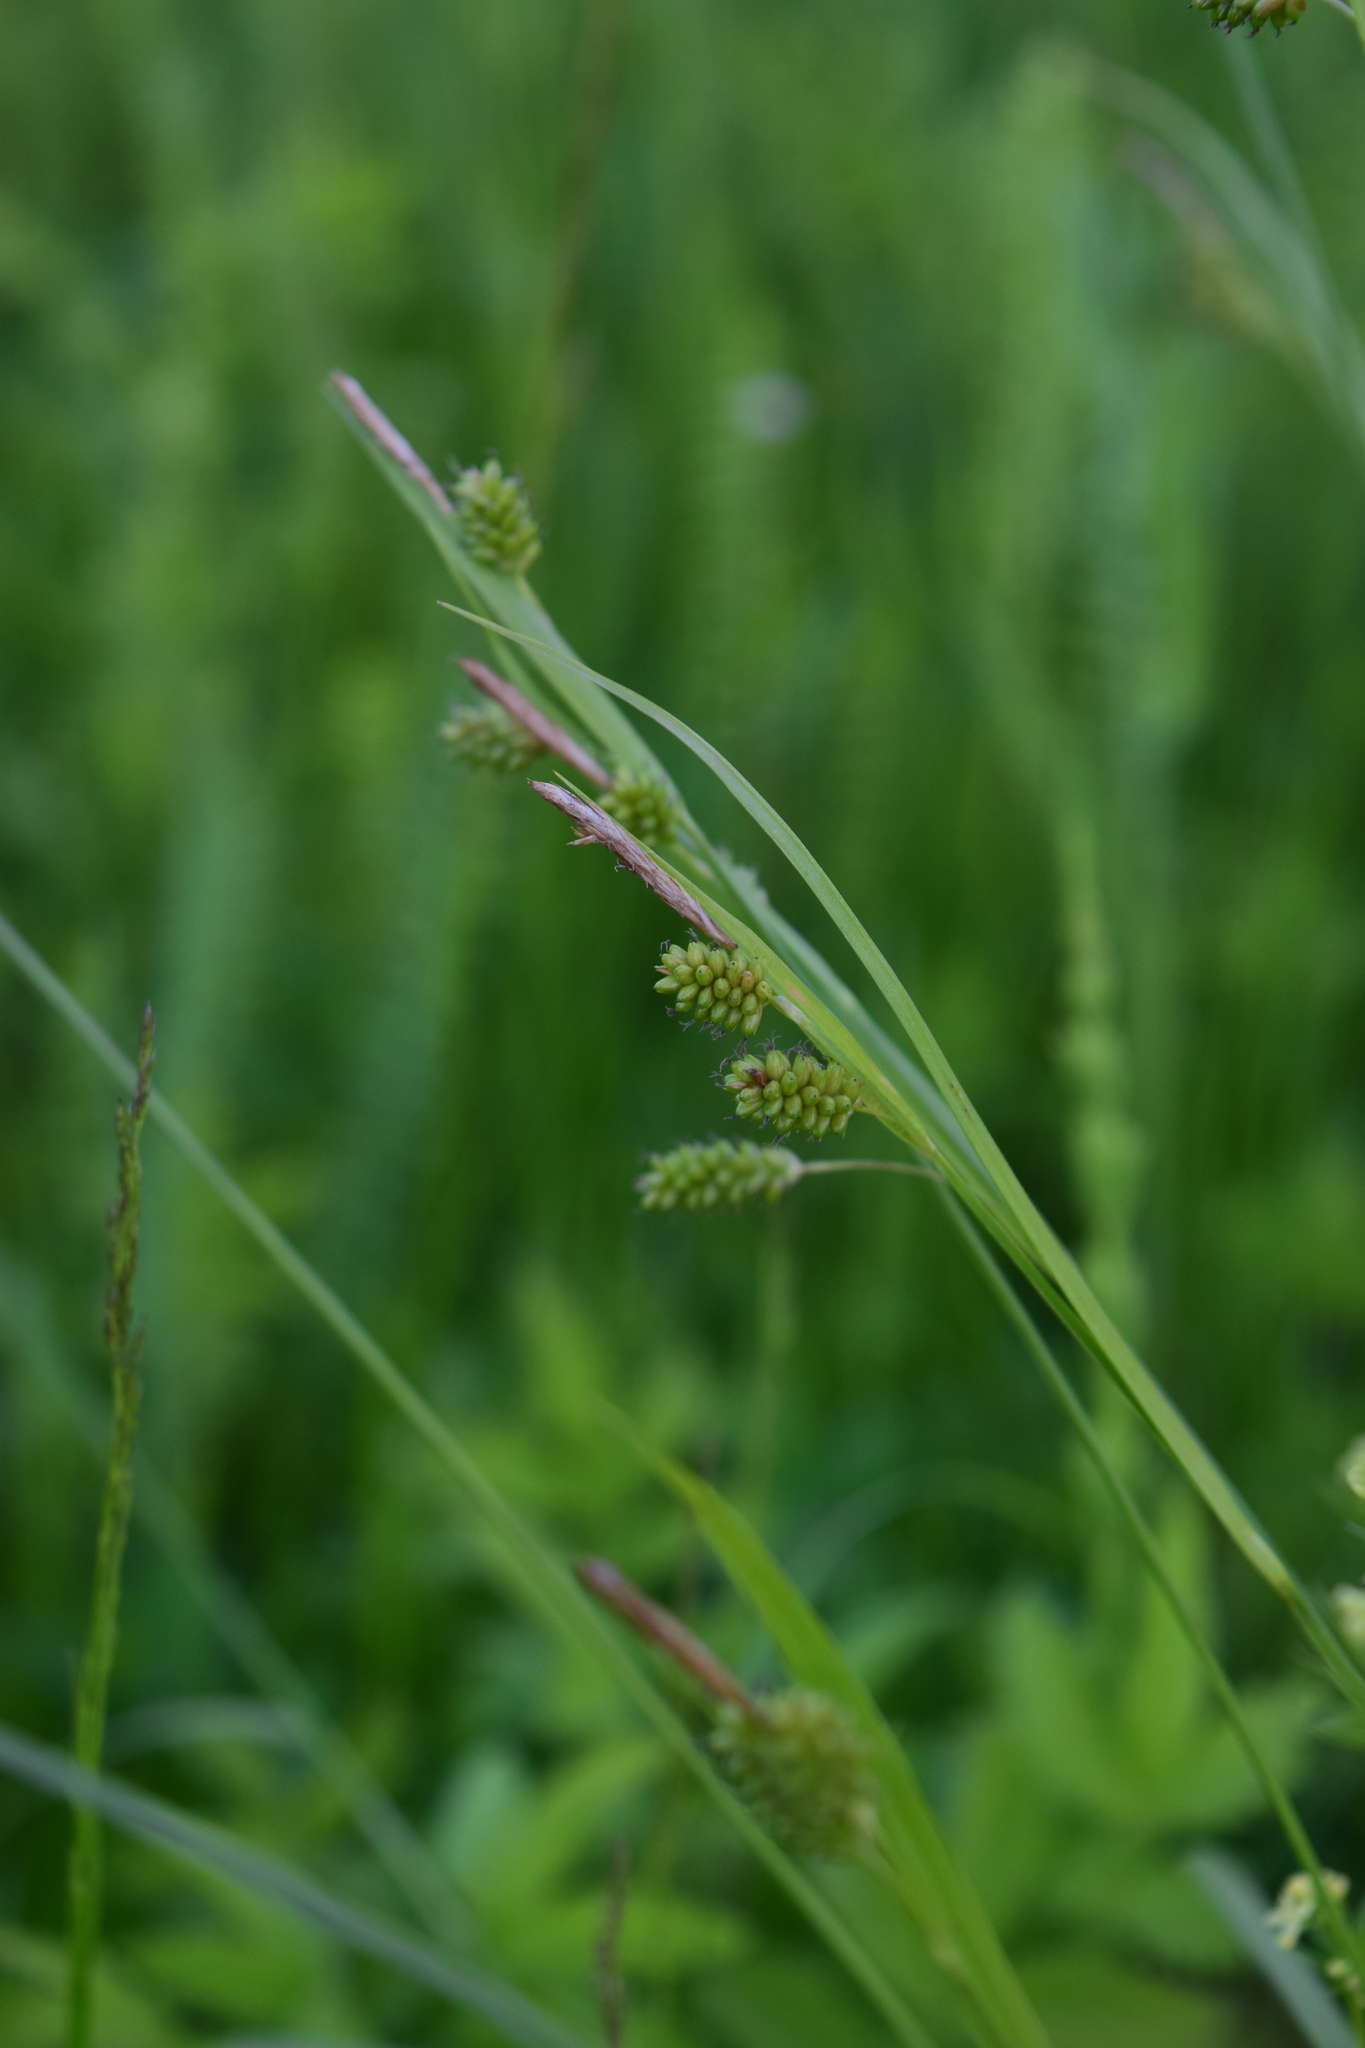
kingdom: Plantae
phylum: Tracheophyta
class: Liliopsida
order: Poales
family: Cyperaceae
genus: Carex
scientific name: Carex pallescens
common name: Pale sedge
